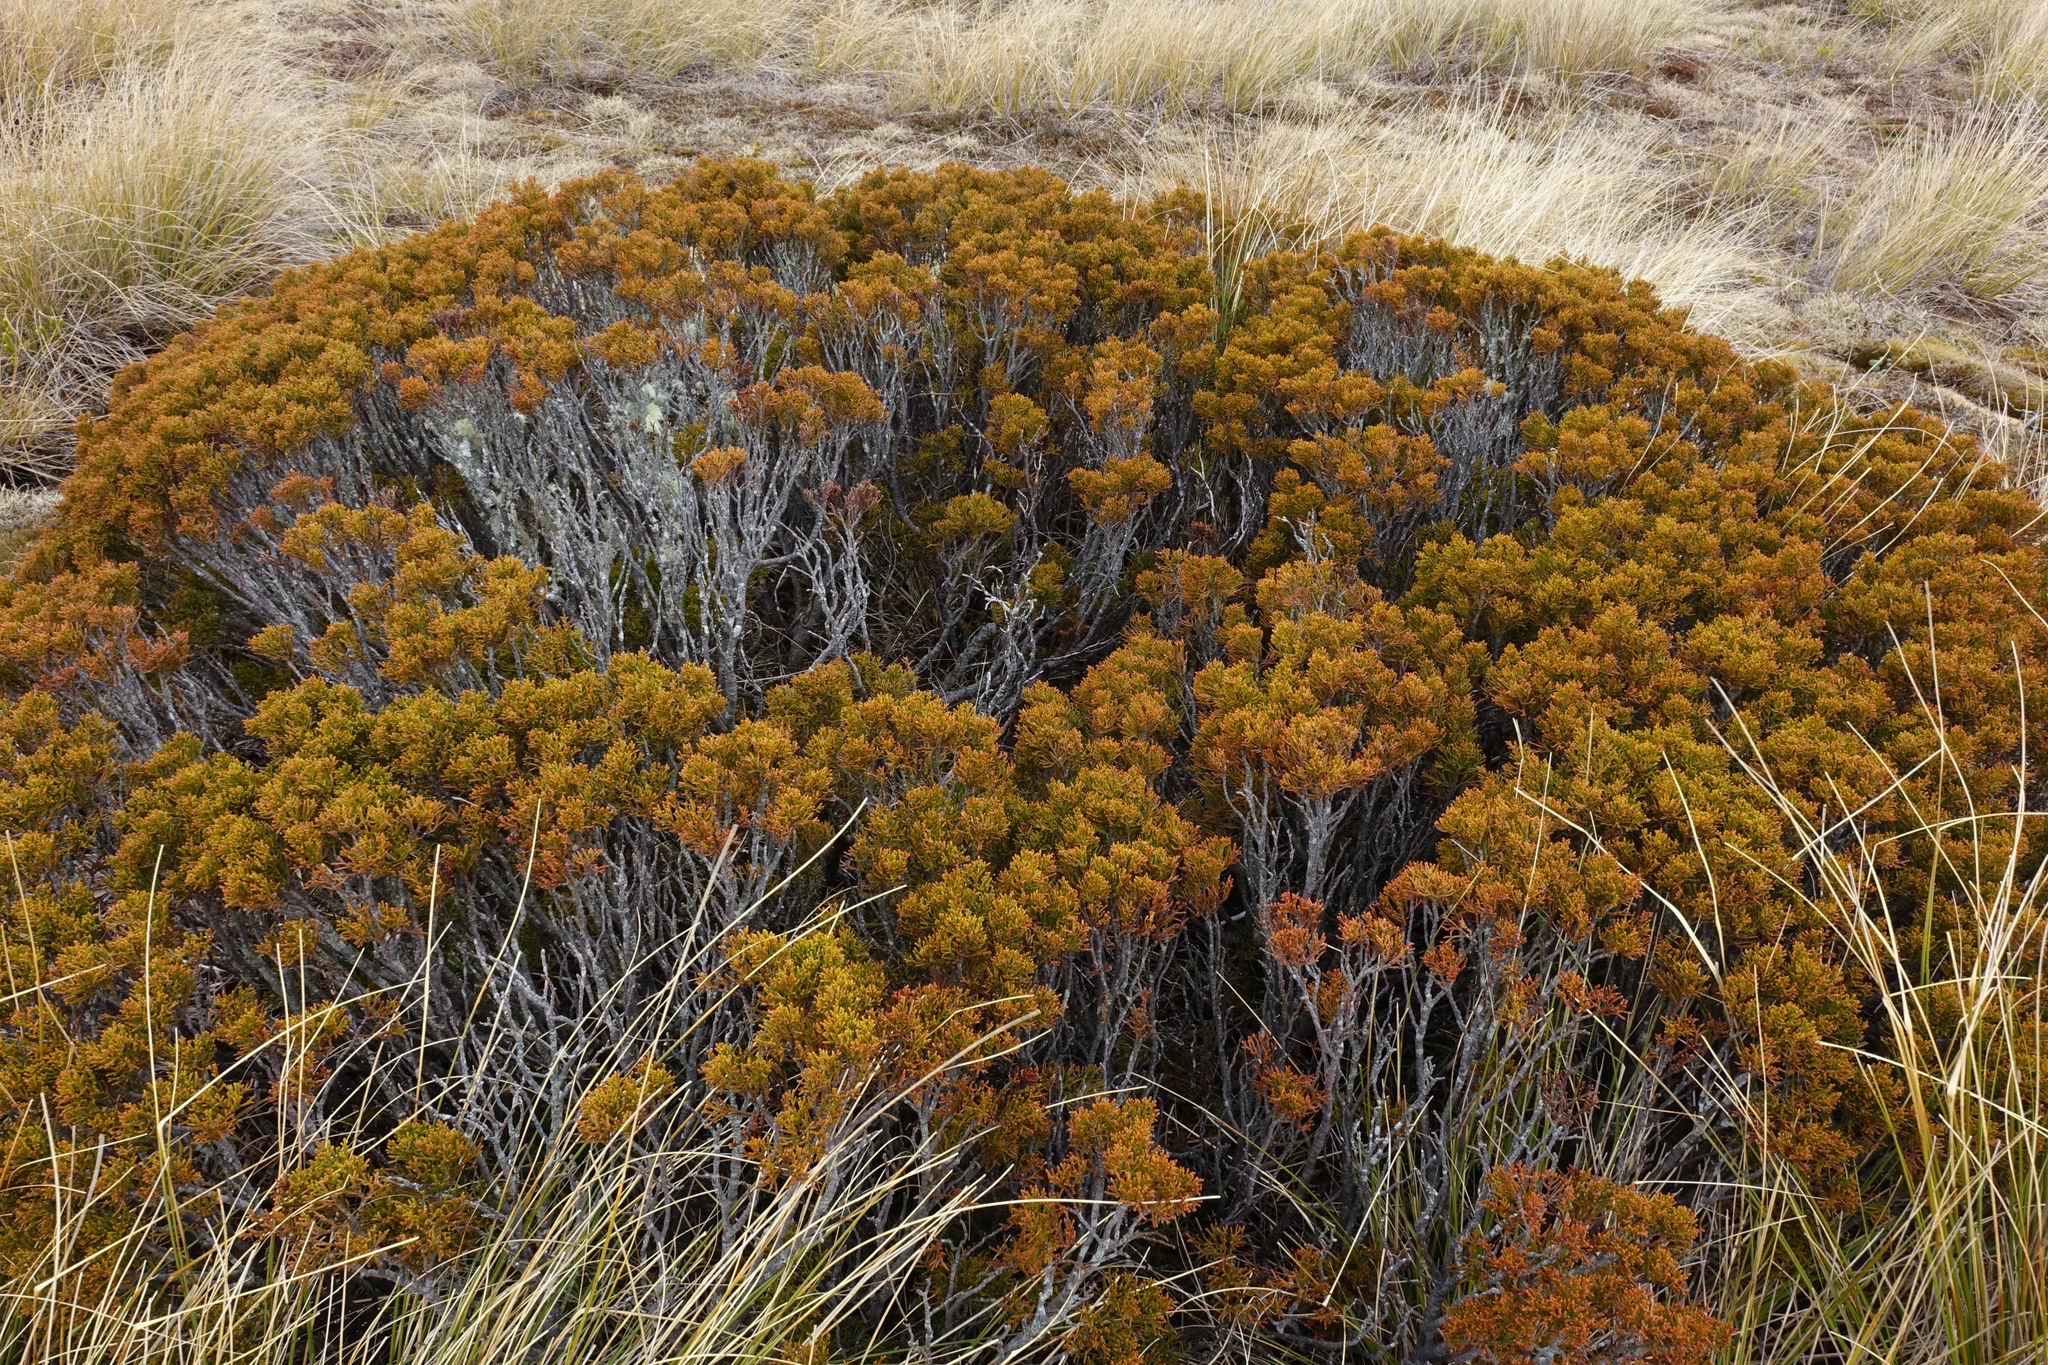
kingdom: Plantae
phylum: Tracheophyta
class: Pinopsida
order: Pinales
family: Podocarpaceae
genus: Halocarpus
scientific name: Halocarpus bidwillii
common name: Bog pine
